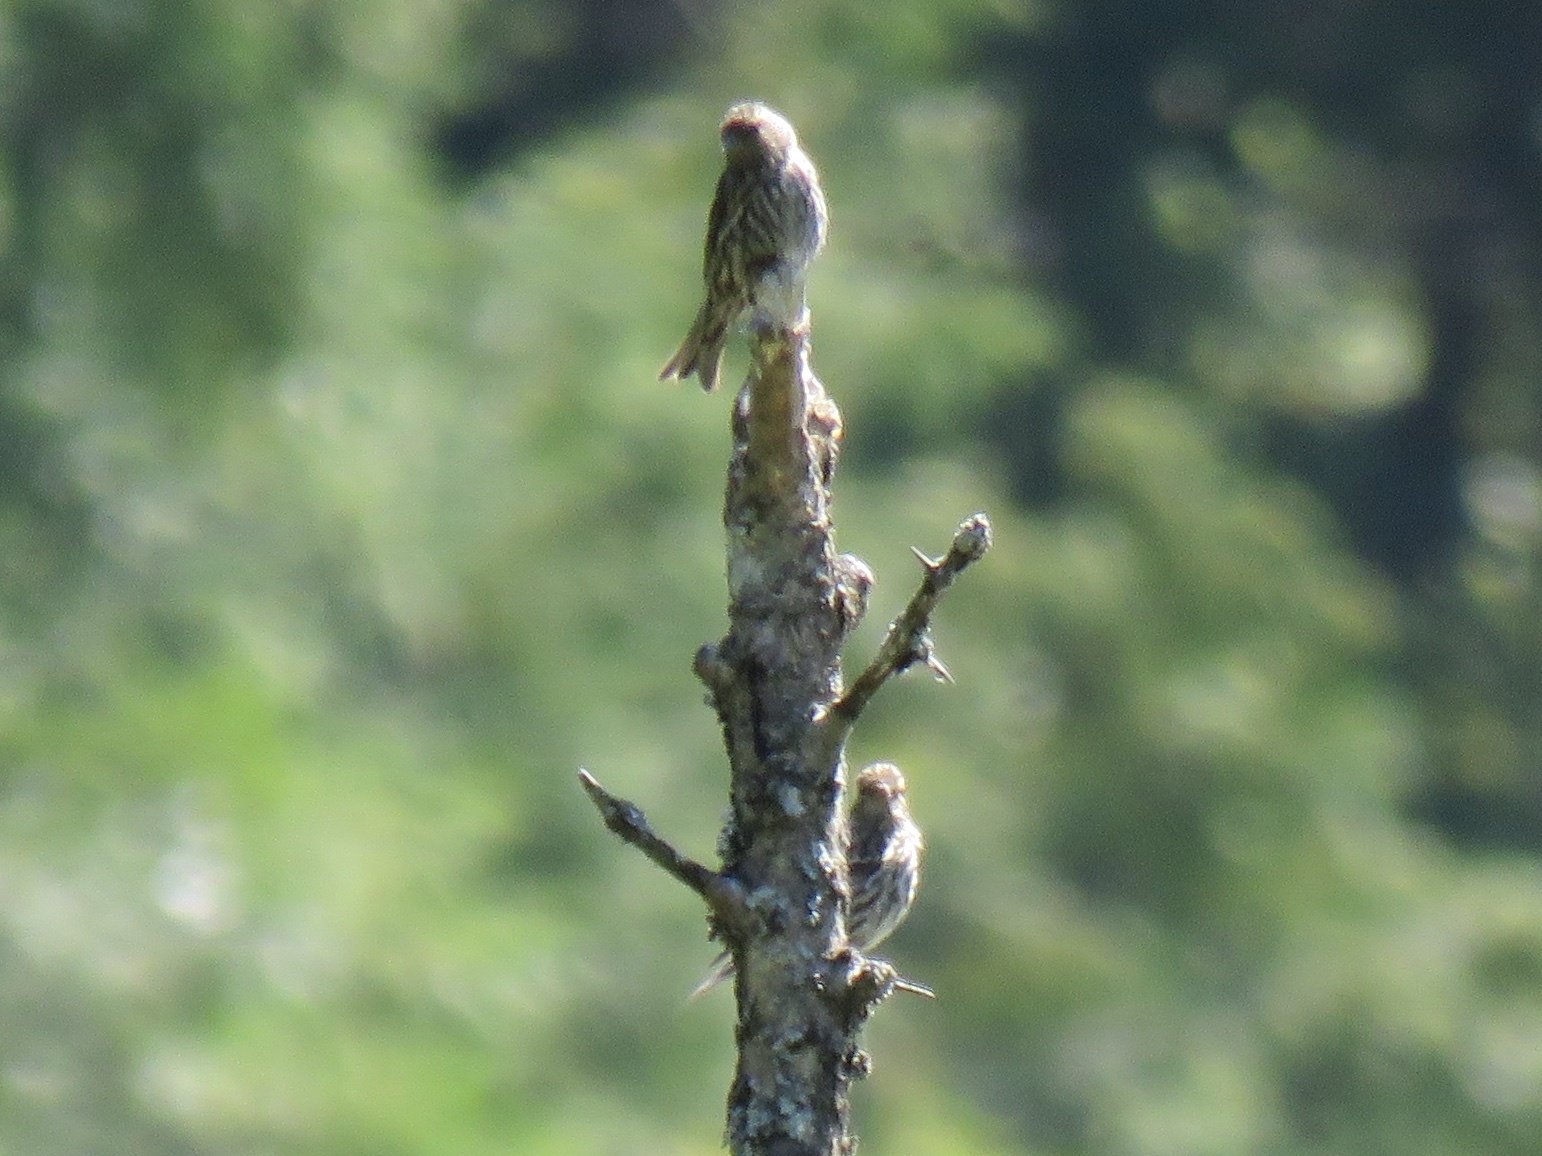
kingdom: Animalia
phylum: Chordata
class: Aves
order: Passeriformes
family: Fringillidae
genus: Spinus
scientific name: Spinus pinus
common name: Pine siskin
